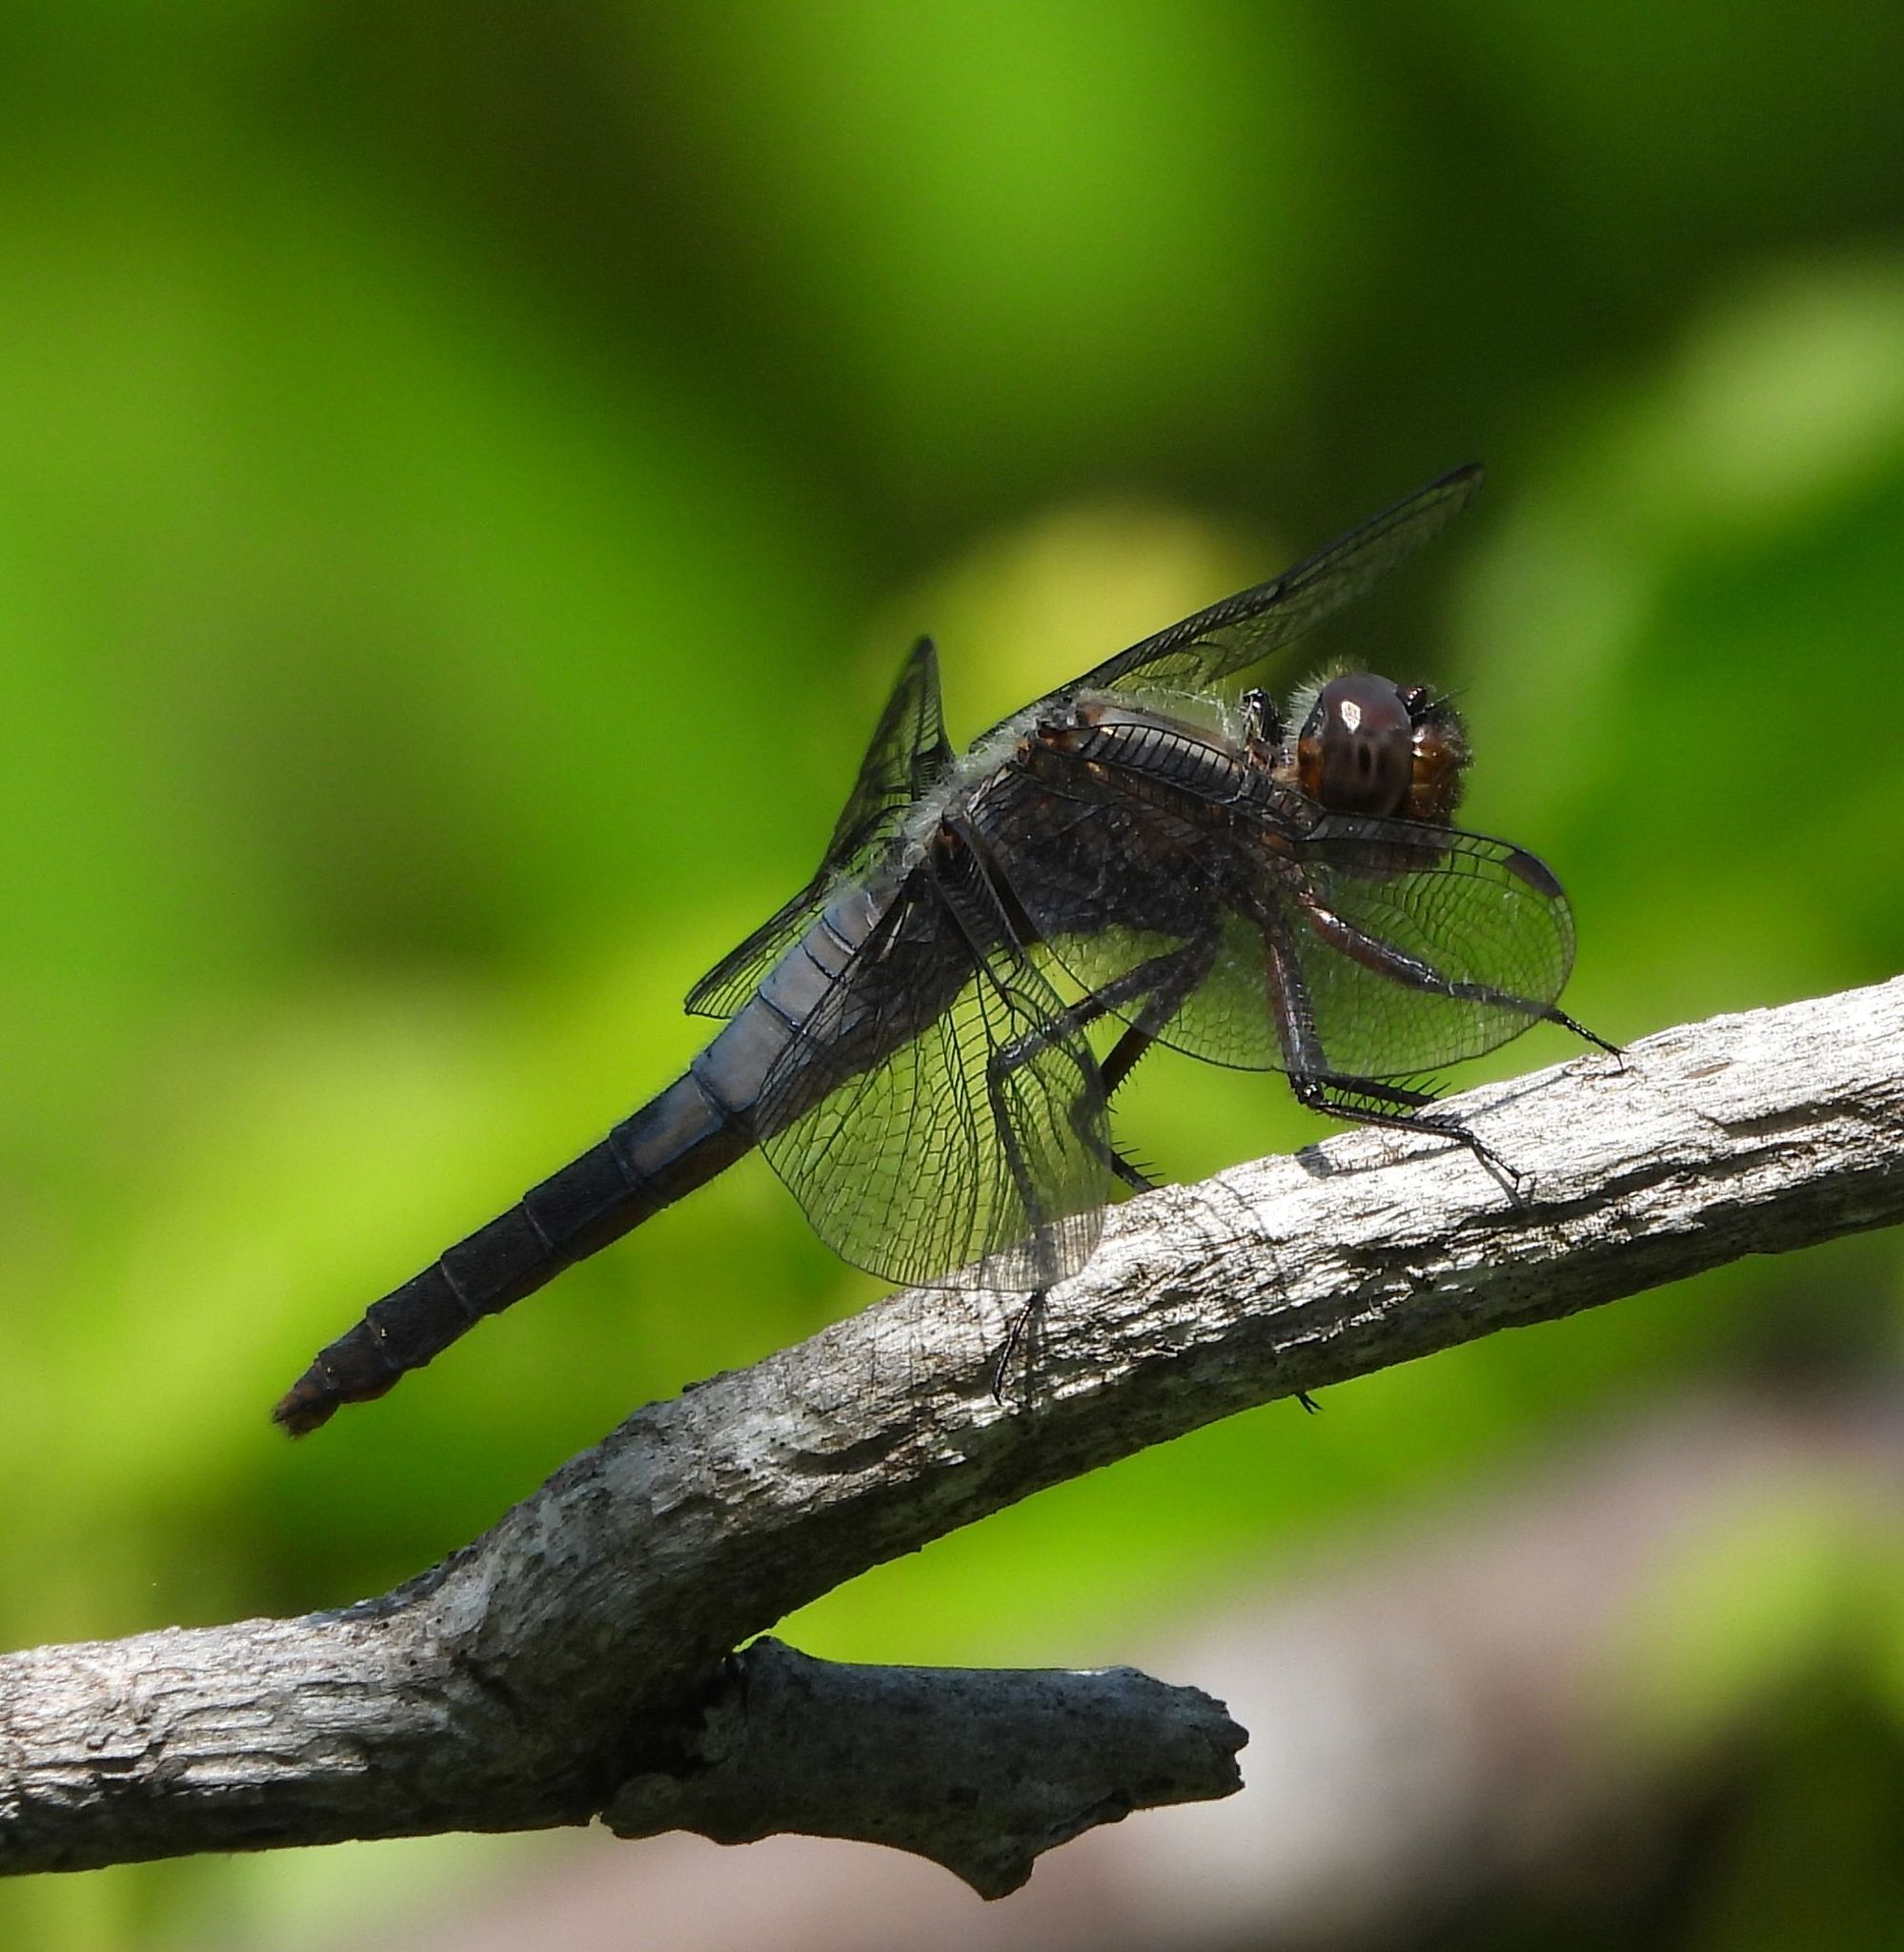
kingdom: Animalia
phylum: Arthropoda
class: Insecta
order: Odonata
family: Libellulidae
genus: Ladona
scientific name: Ladona julia
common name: Chalk-fronted corporal
